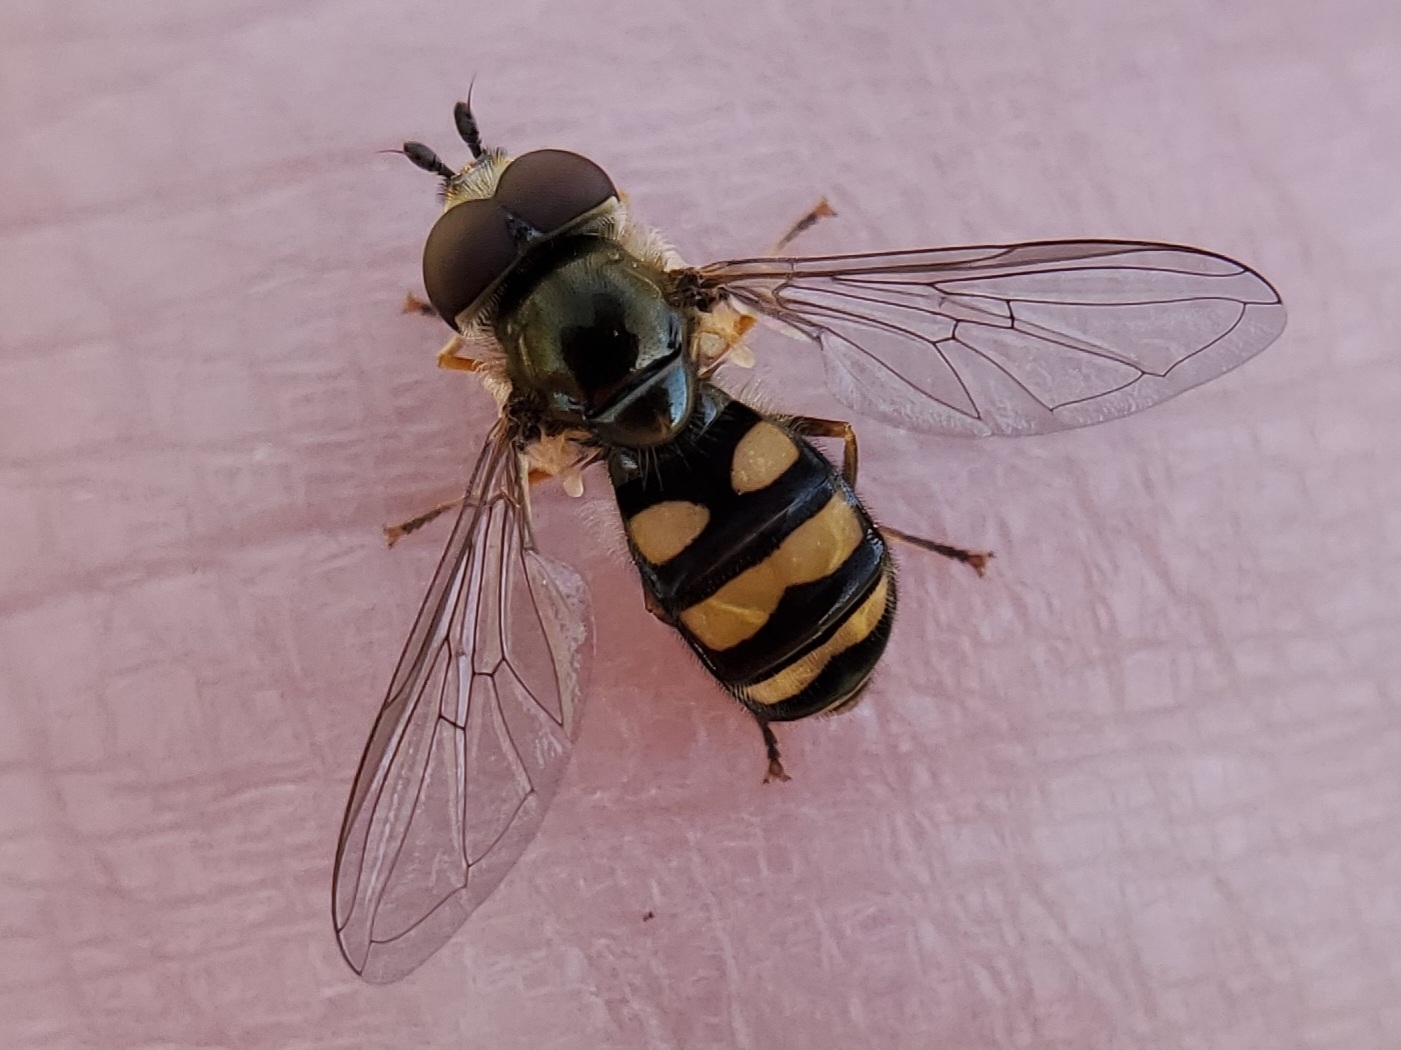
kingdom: Animalia
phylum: Arthropoda
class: Insecta
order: Diptera
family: Syrphidae
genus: Eupeodes
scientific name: Eupeodes
